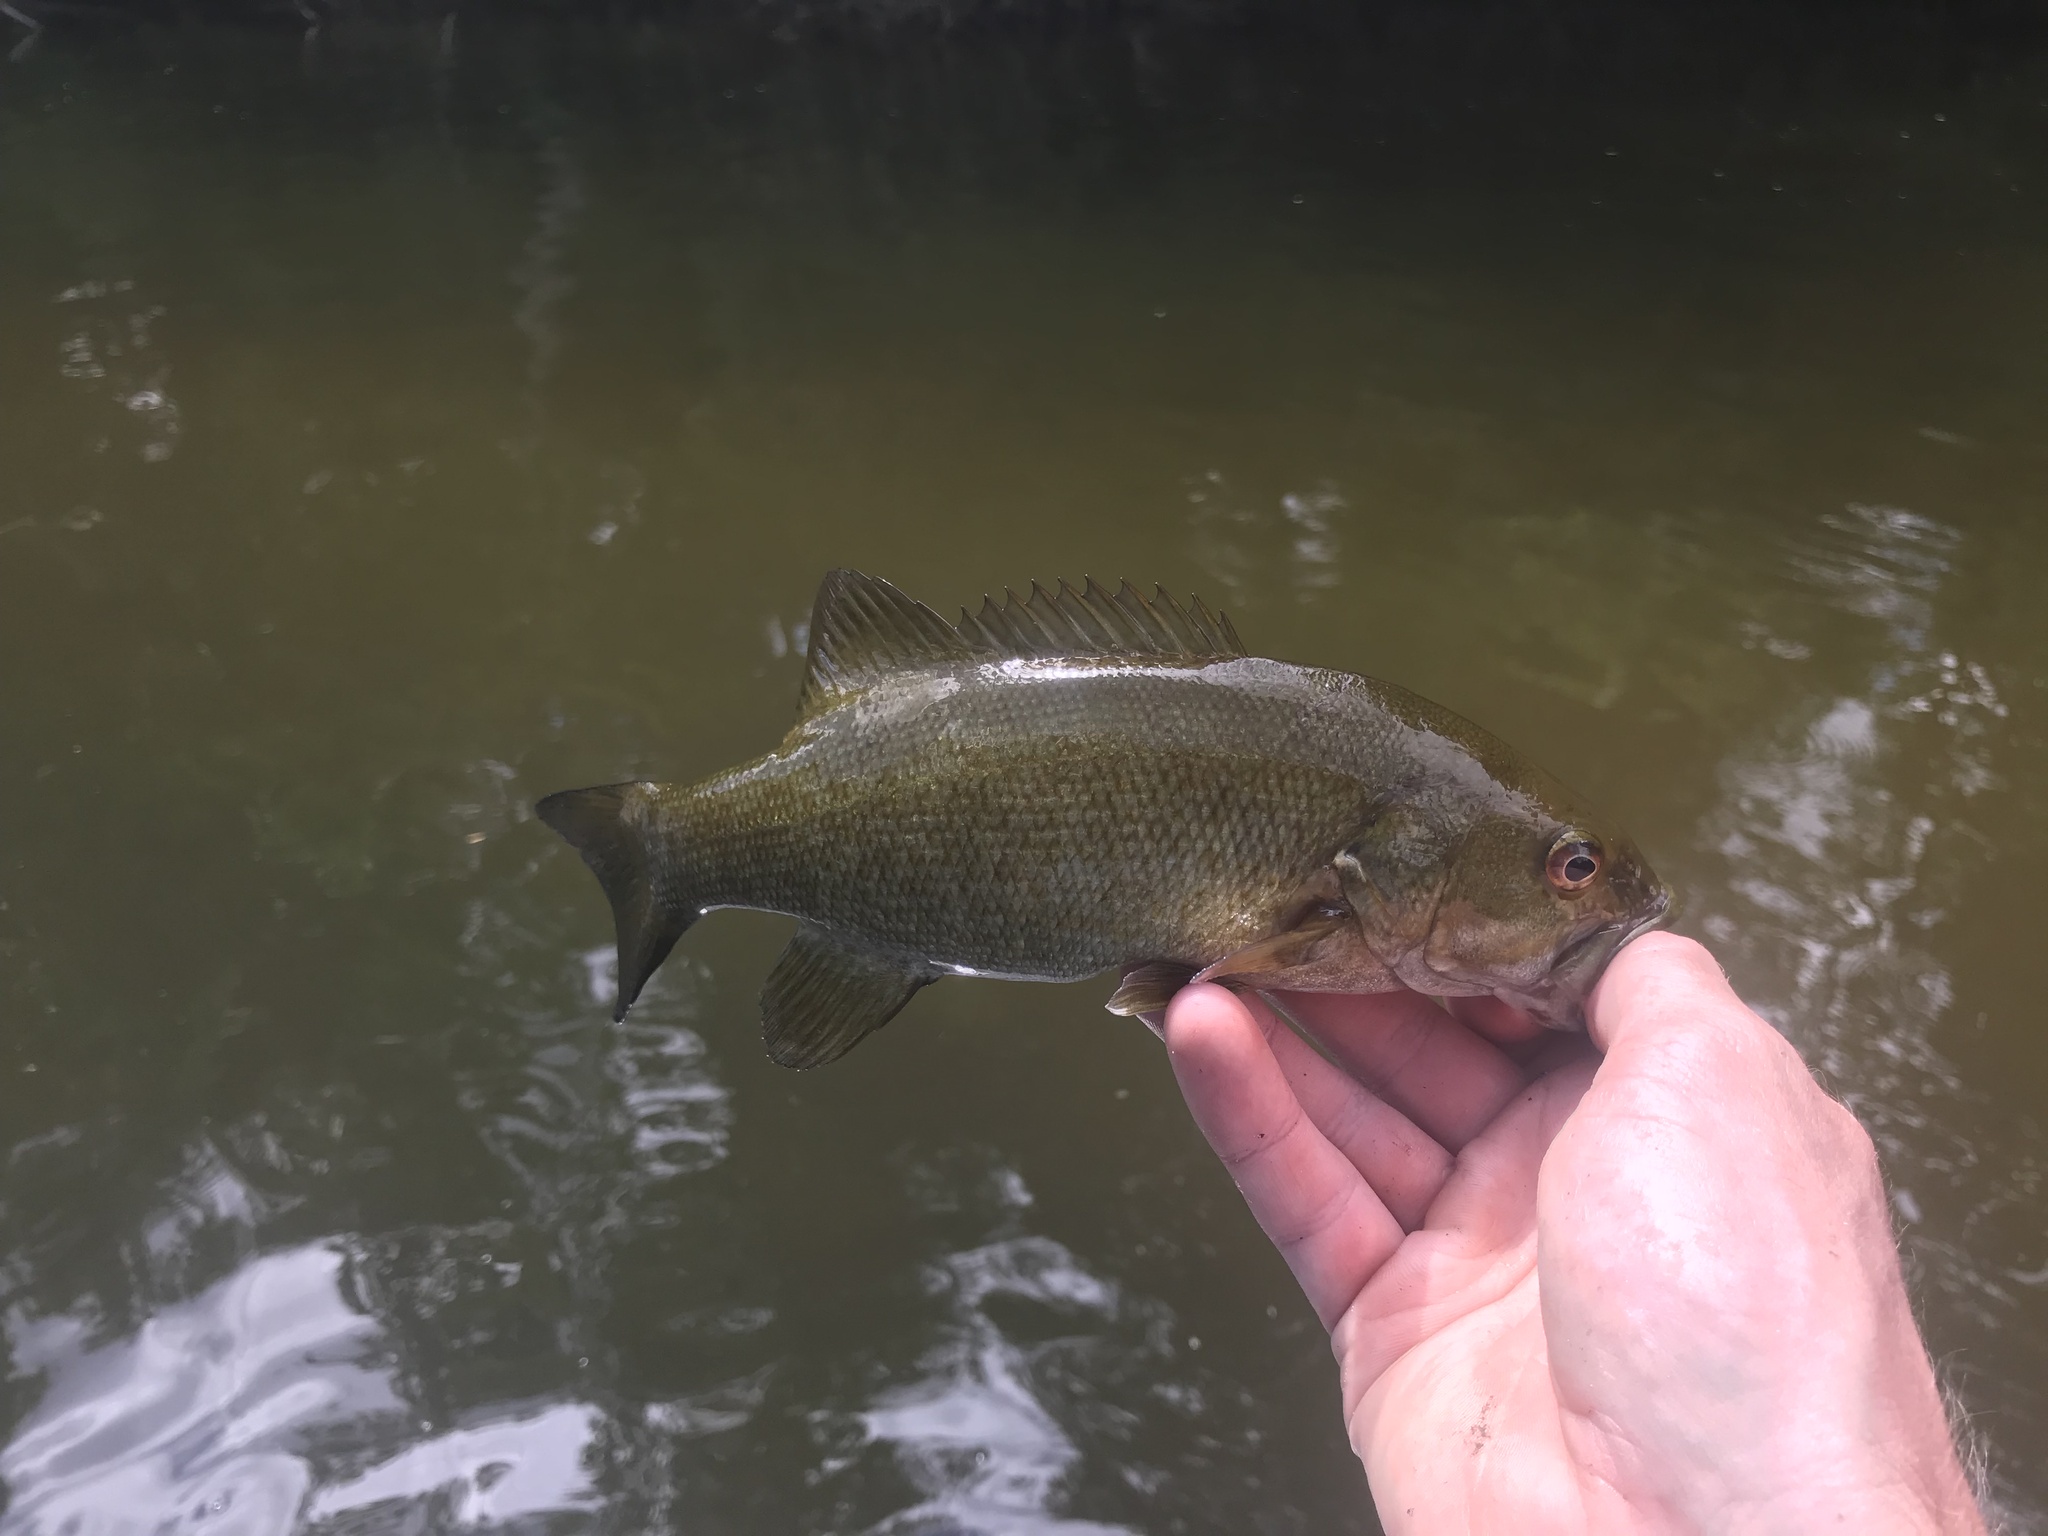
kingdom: Animalia
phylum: Chordata
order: Perciformes
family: Centrarchidae
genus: Micropterus
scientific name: Micropterus dolomieu
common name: Smallmouth bass
